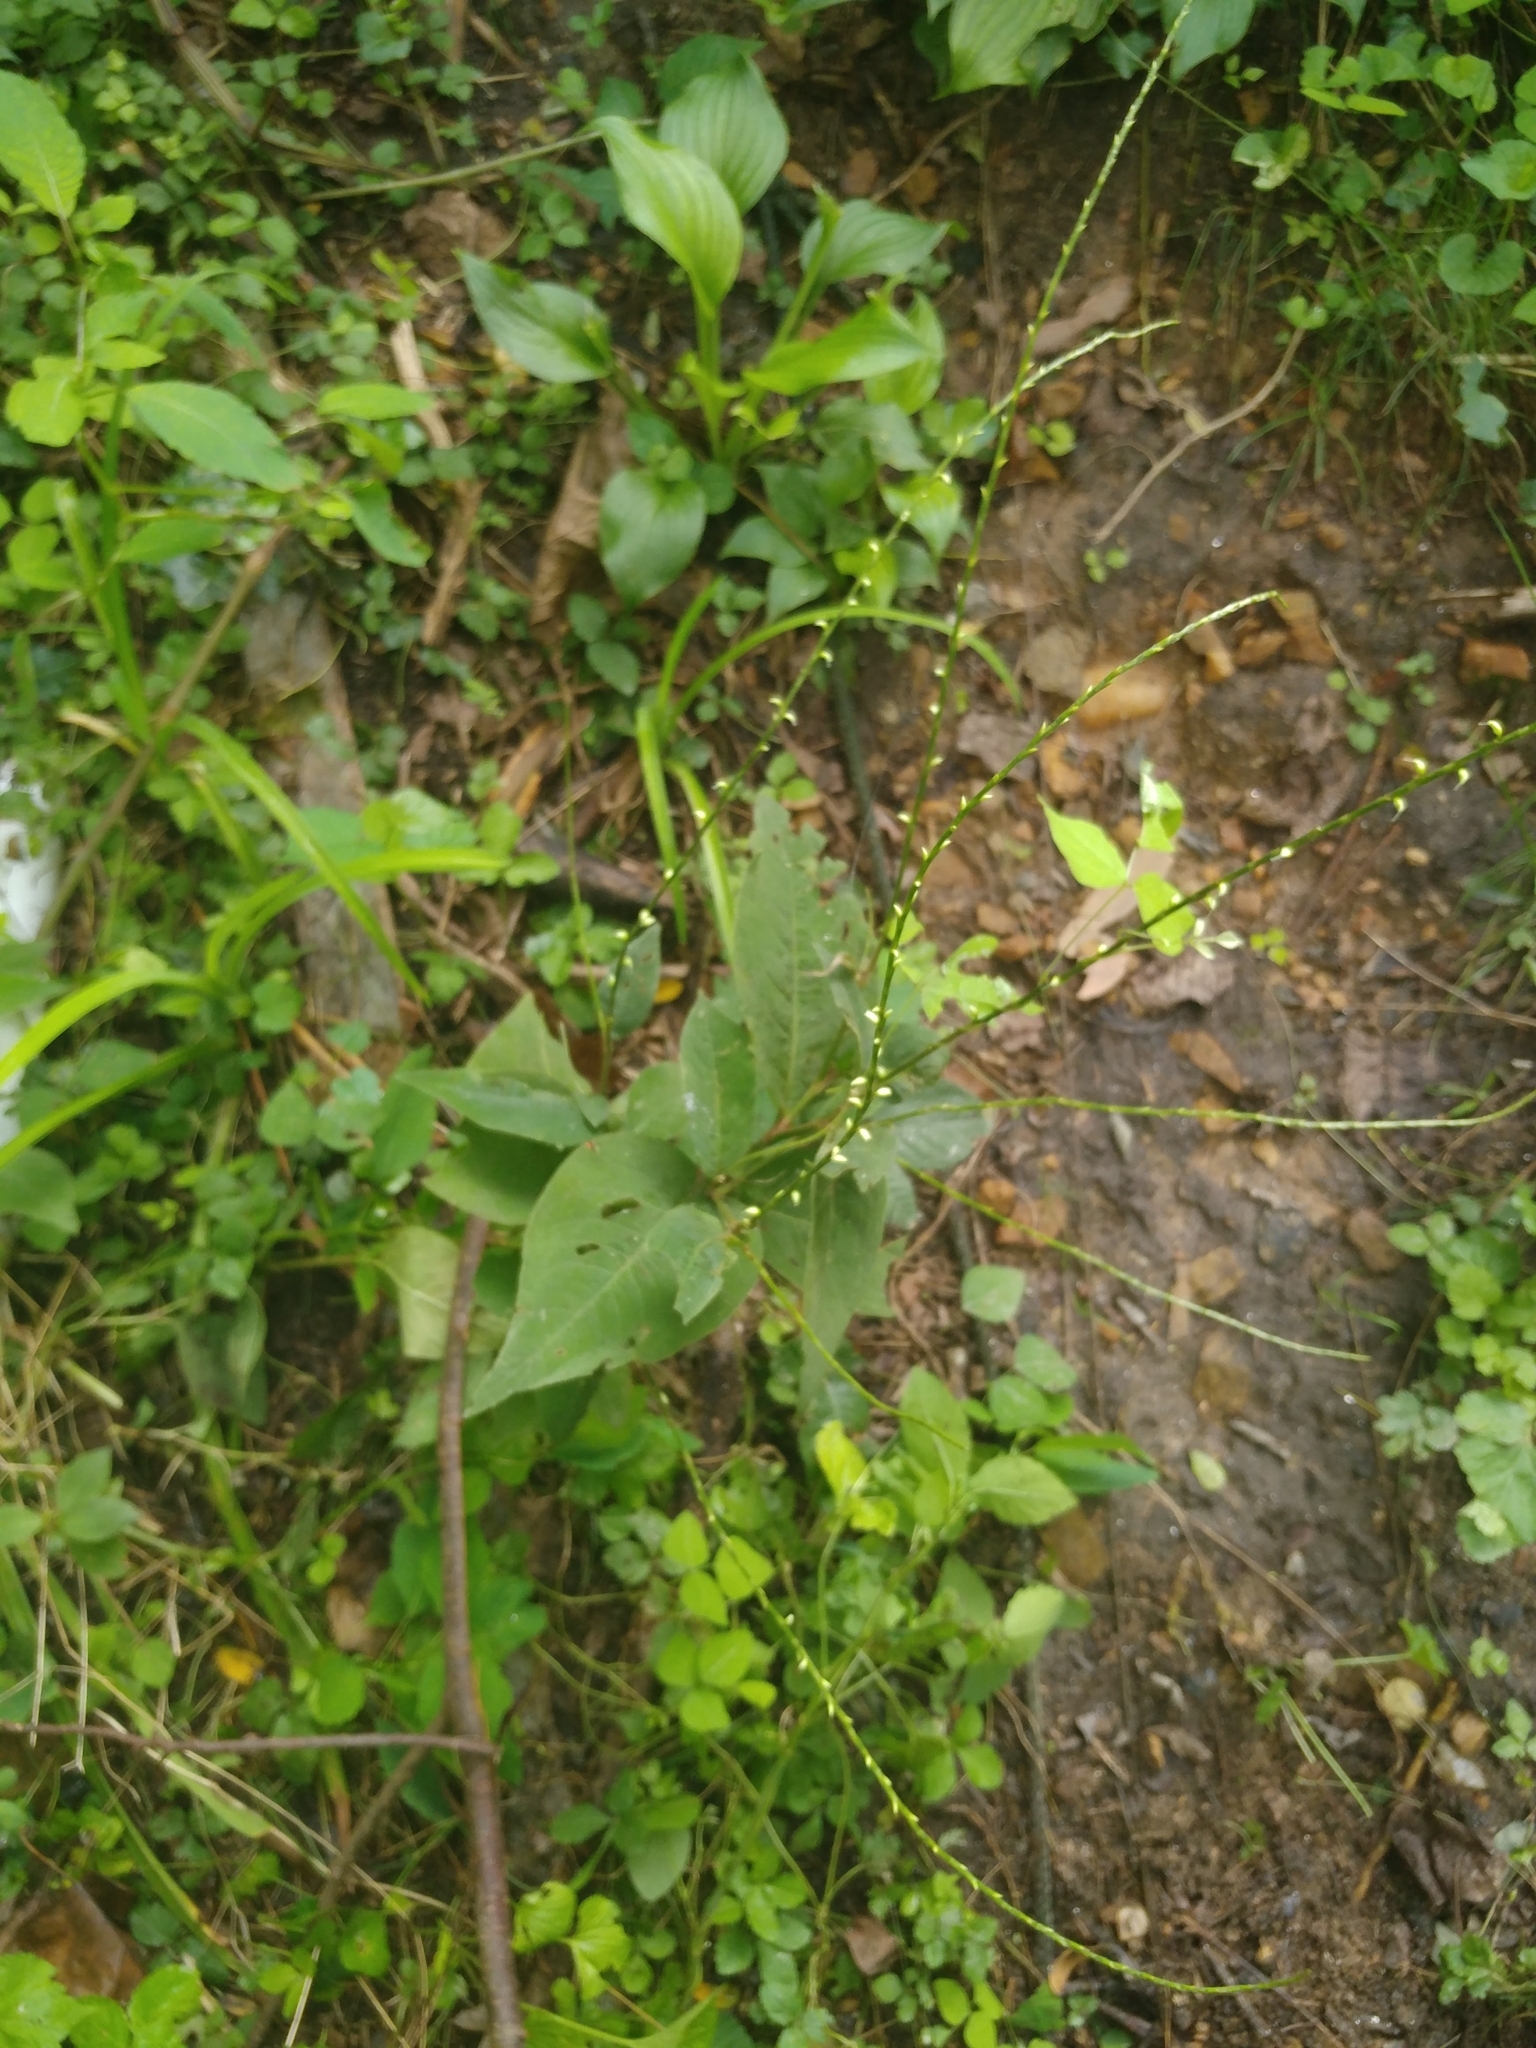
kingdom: Plantae
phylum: Tracheophyta
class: Magnoliopsida
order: Caryophyllales
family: Polygonaceae
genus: Persicaria
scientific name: Persicaria virginiana
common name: Jumpseed
